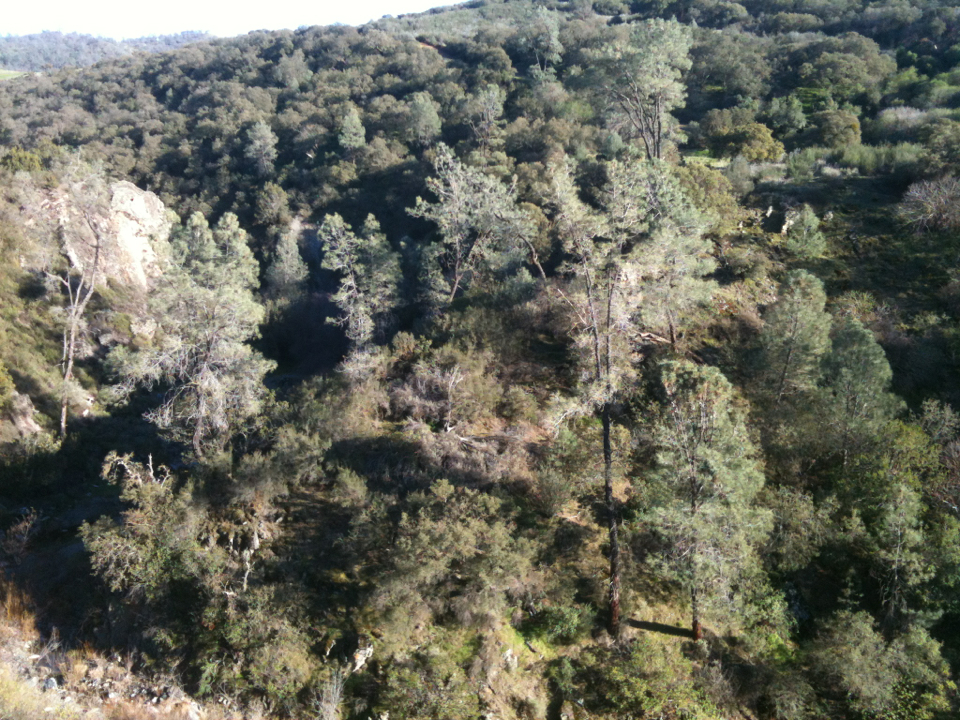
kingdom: Plantae
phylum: Tracheophyta
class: Pinopsida
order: Pinales
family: Pinaceae
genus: Pinus
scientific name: Pinus sabiniana
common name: Bull pine
